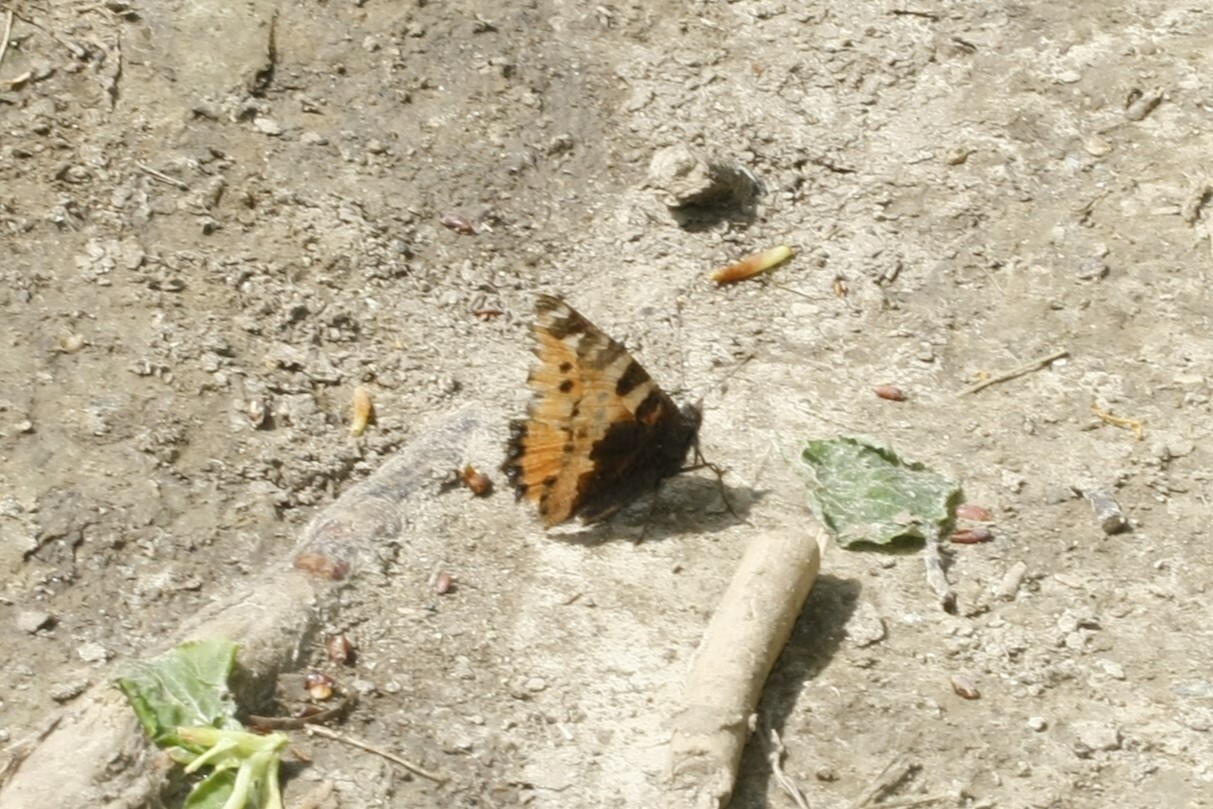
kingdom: Animalia
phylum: Arthropoda
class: Insecta
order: Lepidoptera
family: Nymphalidae
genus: Aglais
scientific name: Aglais urticae
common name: Small tortoiseshell
